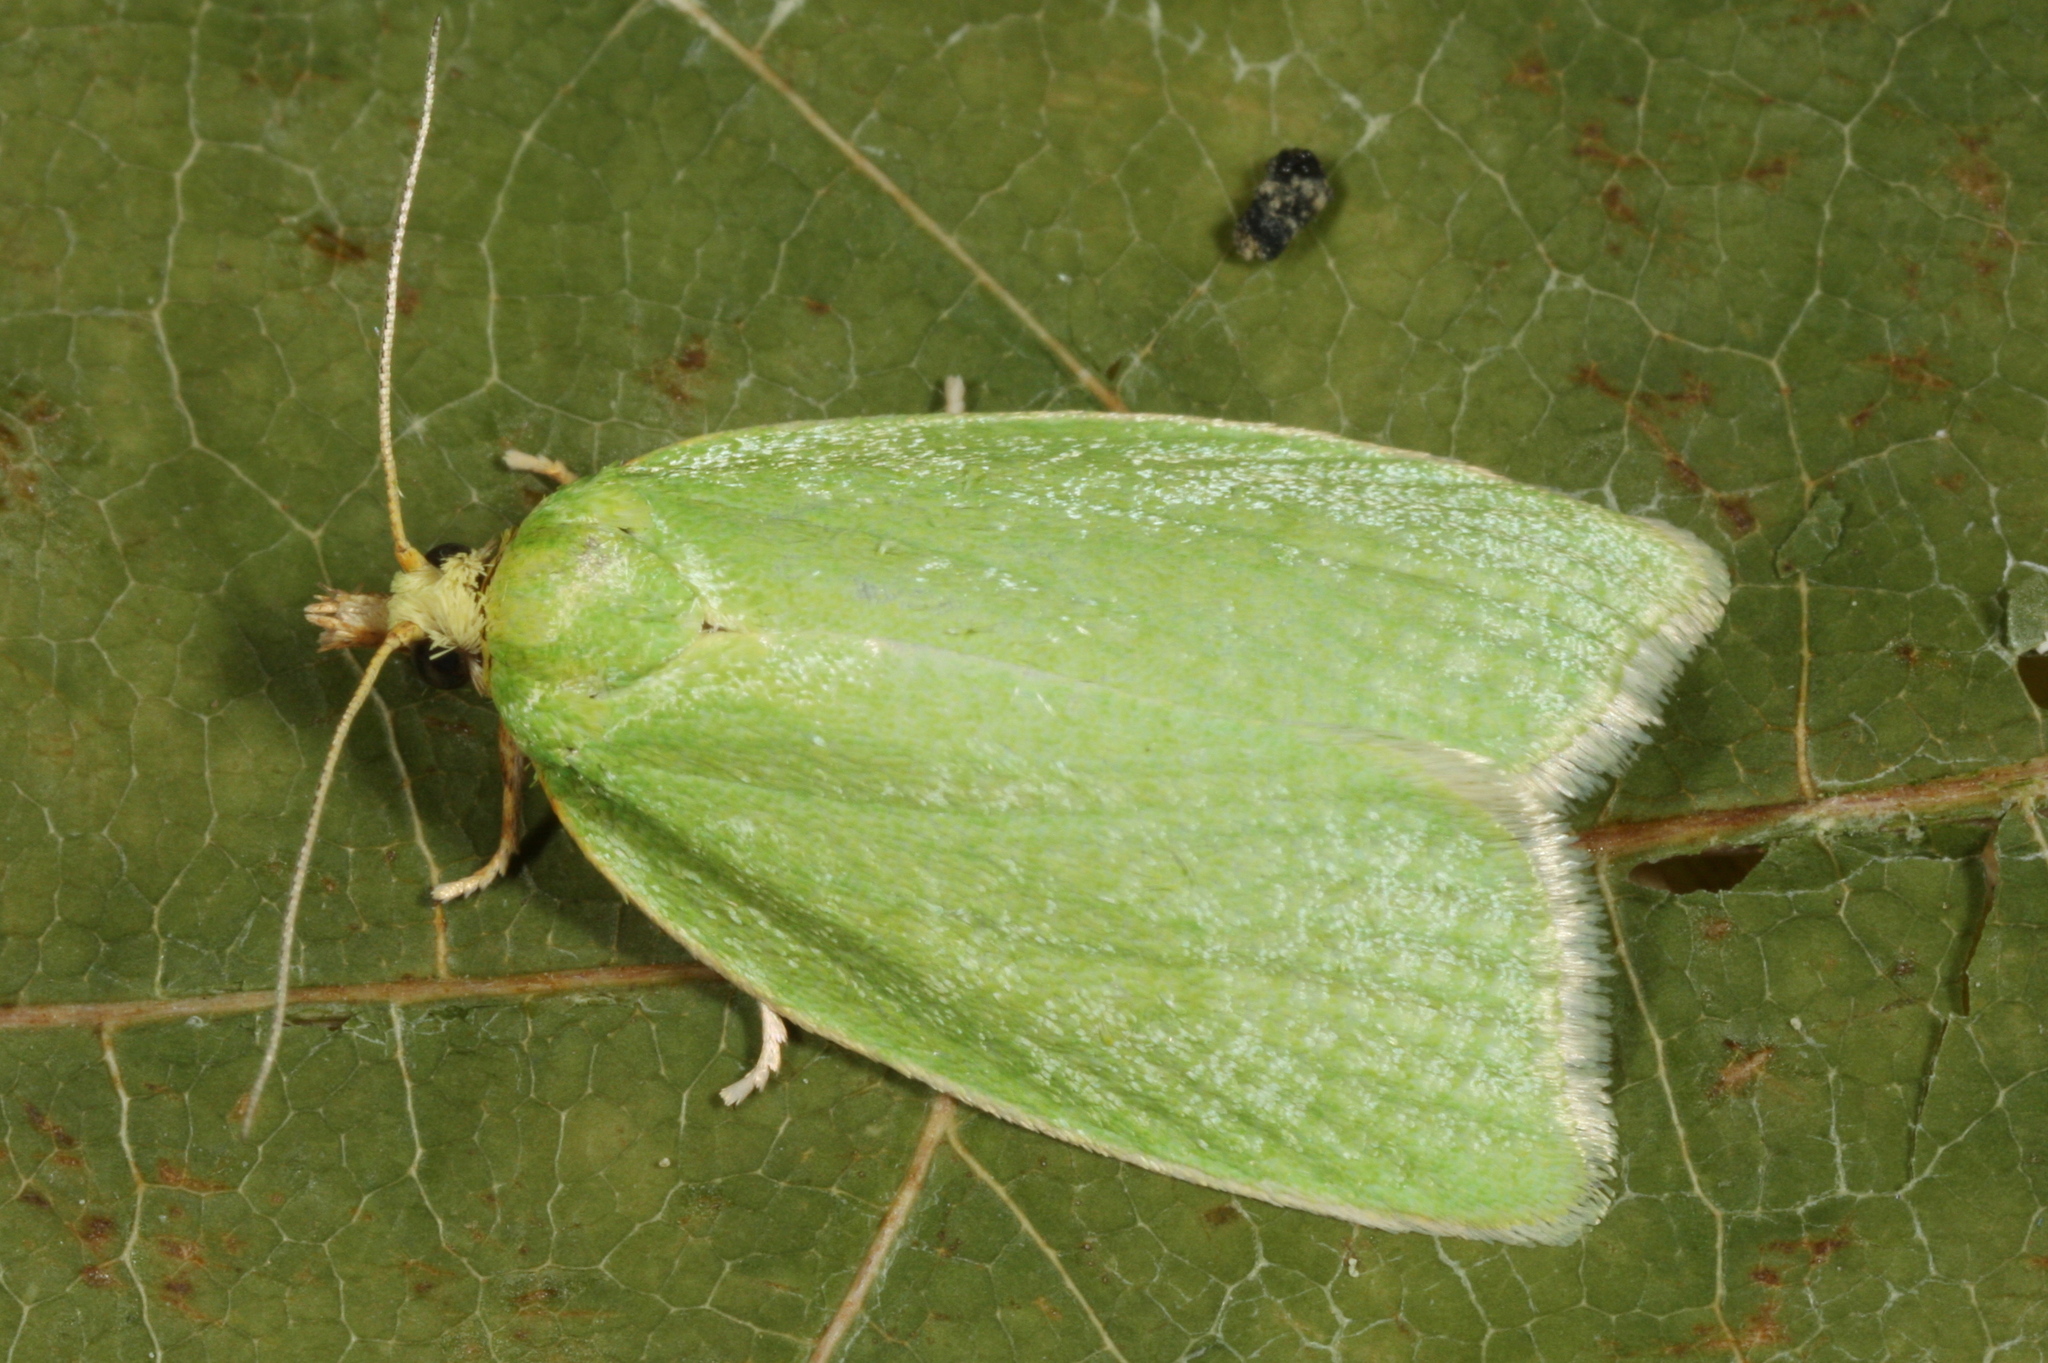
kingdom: Animalia
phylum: Arthropoda
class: Insecta
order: Lepidoptera
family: Tortricidae
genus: Tortrix
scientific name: Tortrix viridana
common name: Green oak tortrix
